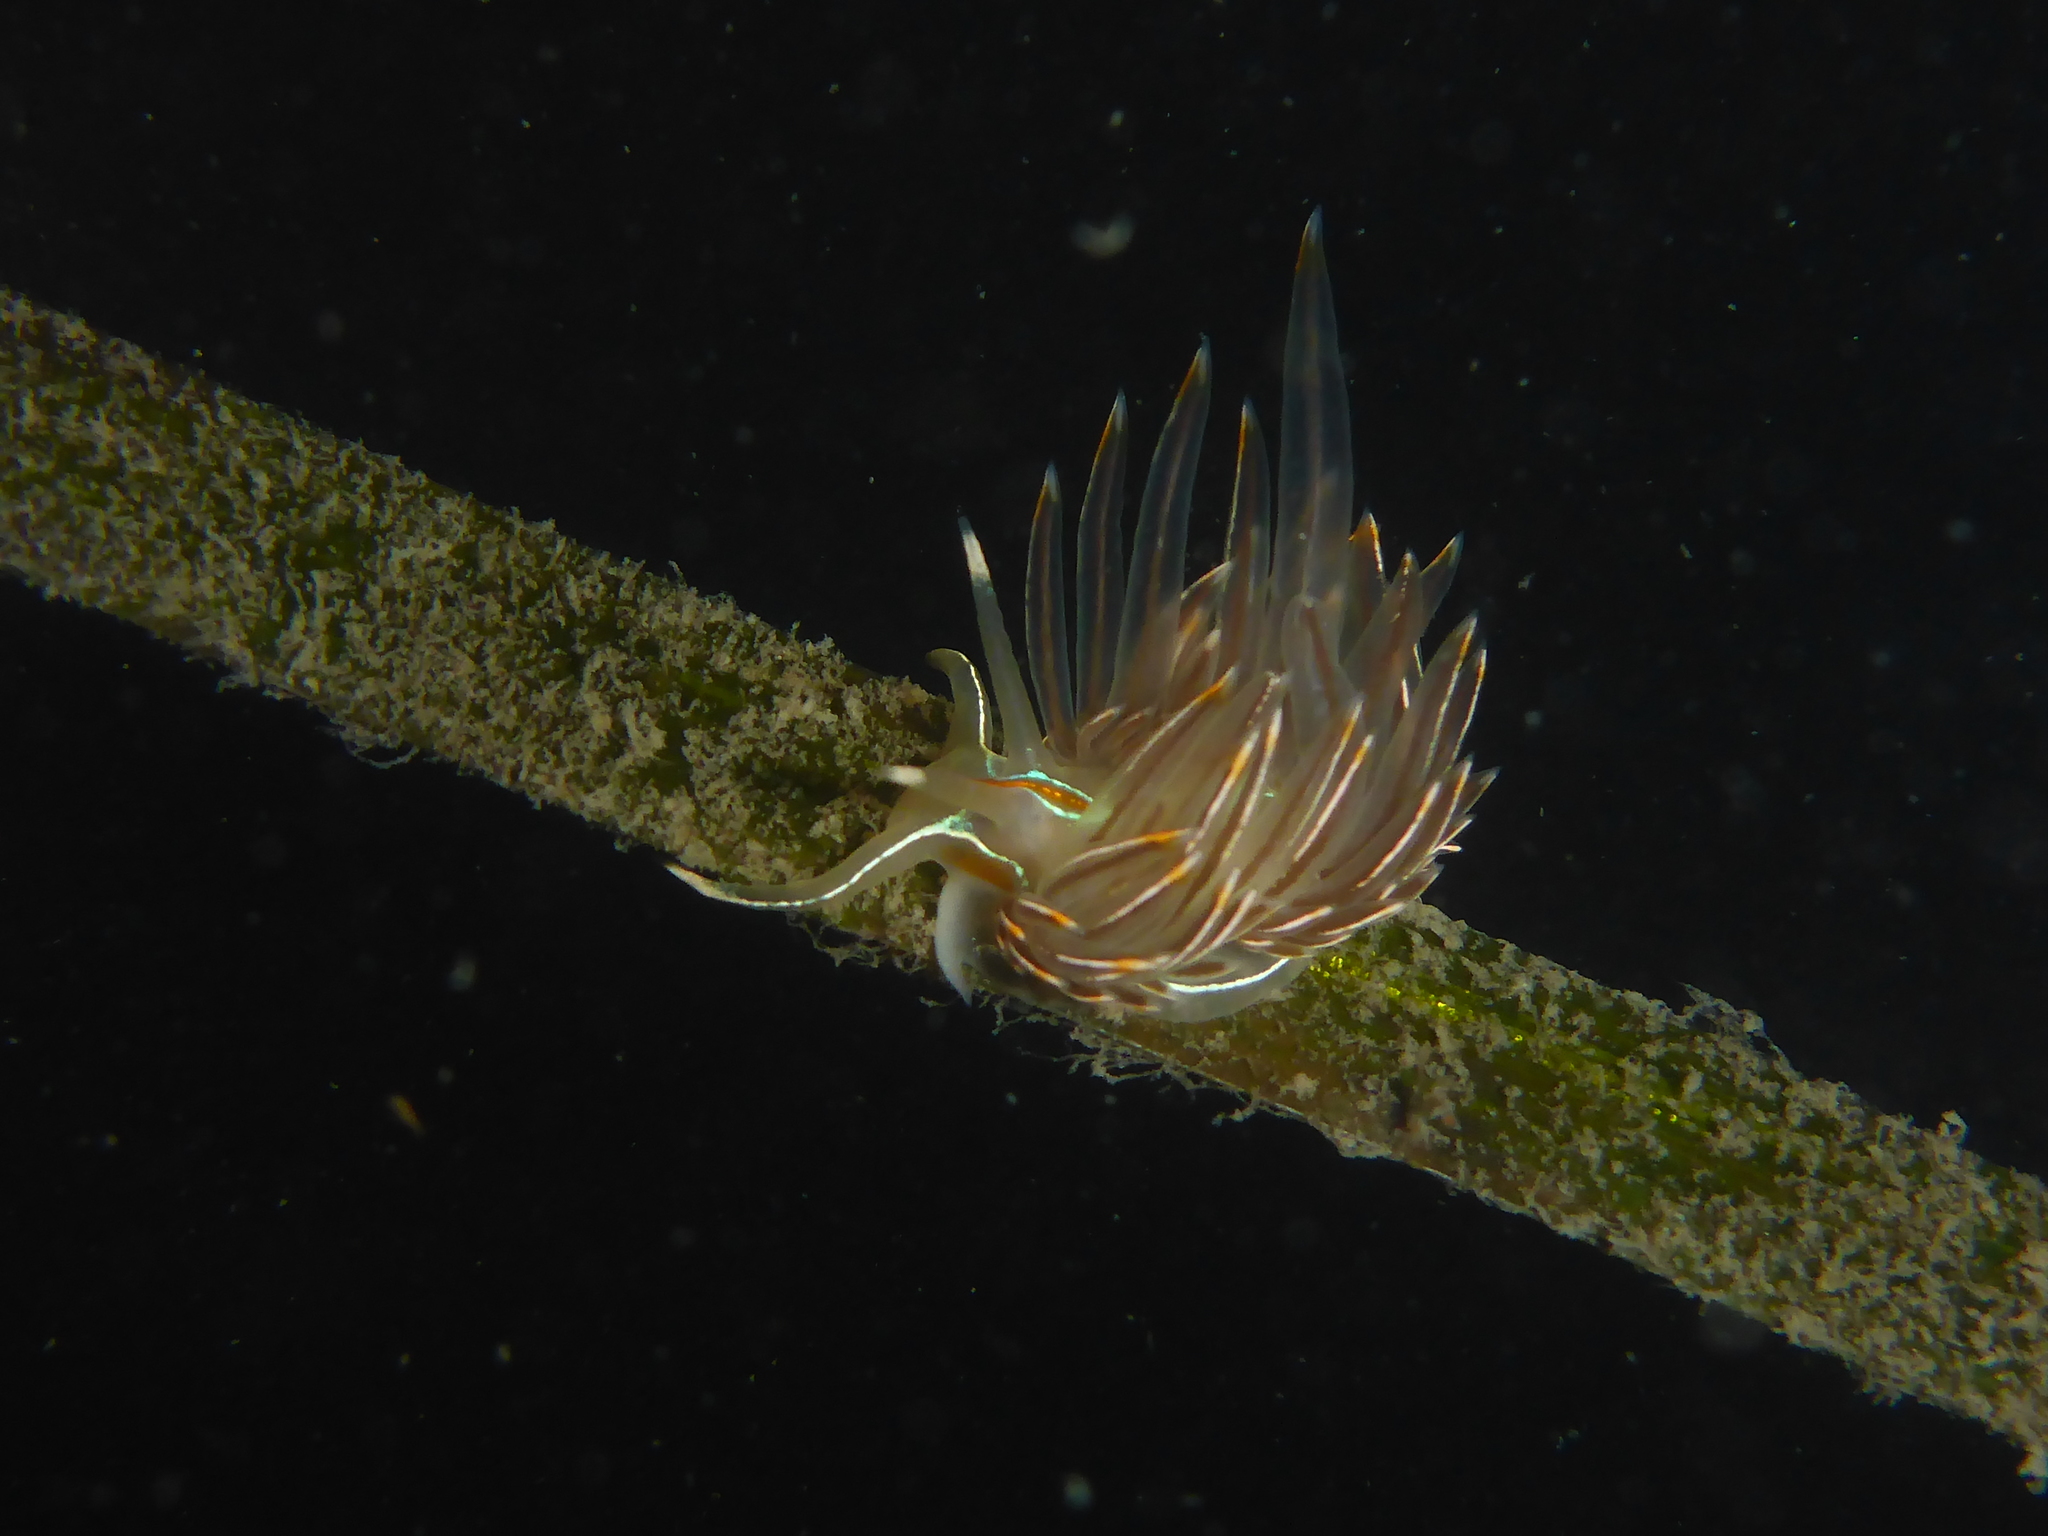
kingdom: Animalia
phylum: Mollusca
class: Gastropoda
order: Nudibranchia
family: Myrrhinidae
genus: Hermissenda
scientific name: Hermissenda crassicornis
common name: Hermissenda
